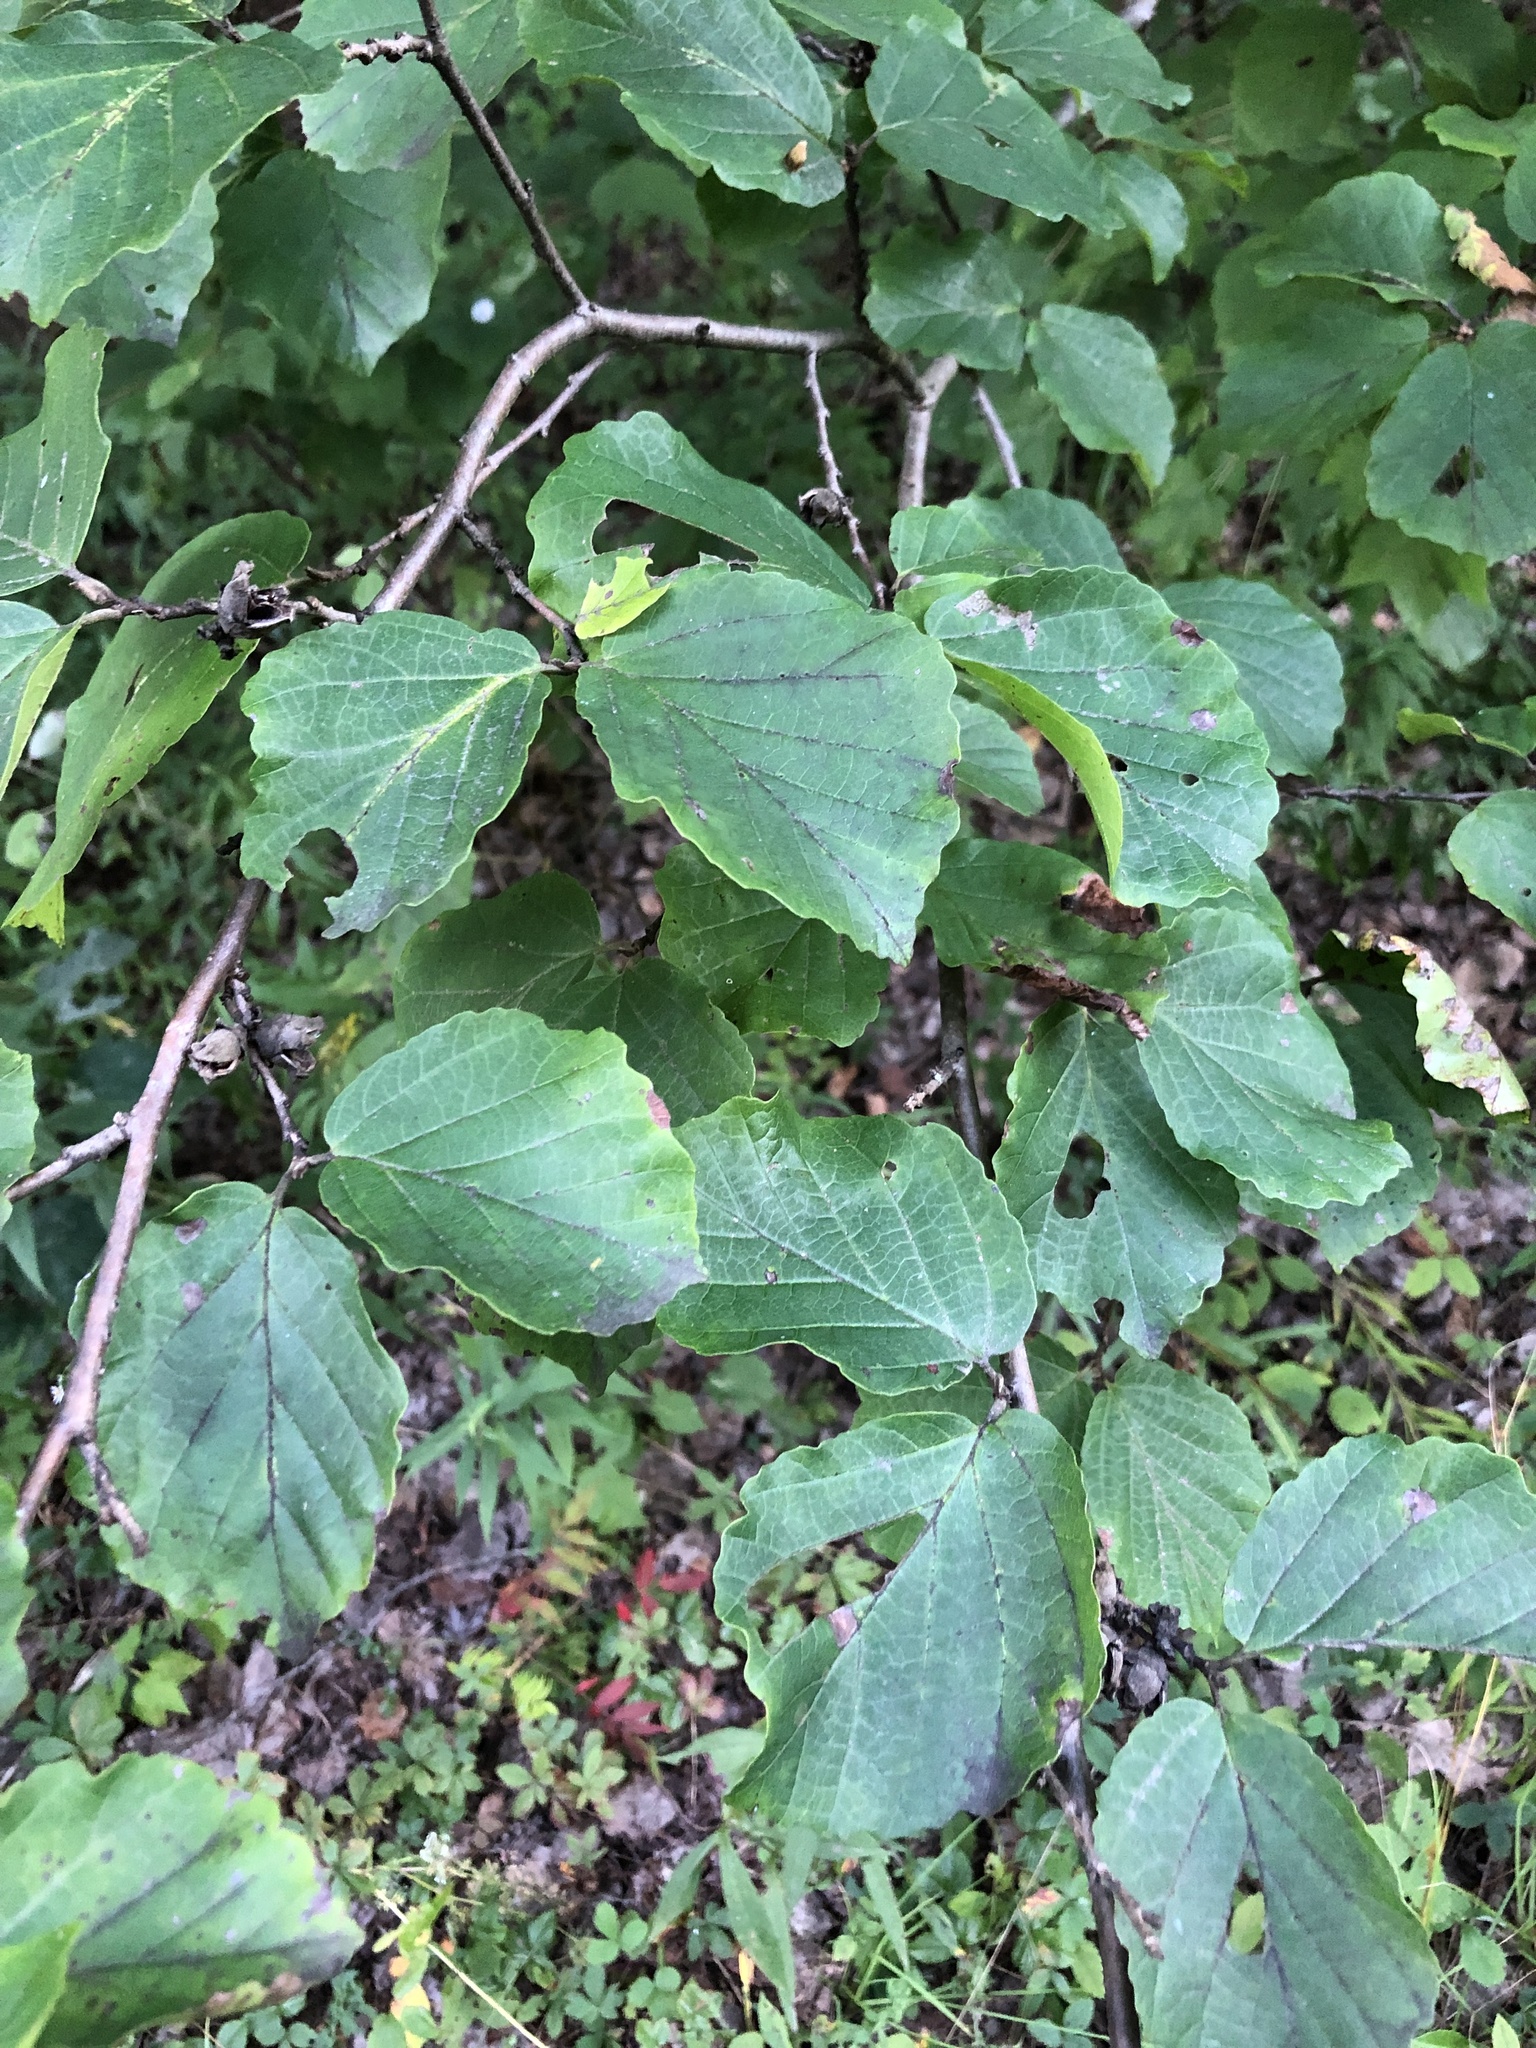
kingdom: Plantae
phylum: Tracheophyta
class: Magnoliopsida
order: Saxifragales
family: Hamamelidaceae
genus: Hamamelis
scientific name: Hamamelis virginiana
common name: Witch-hazel
